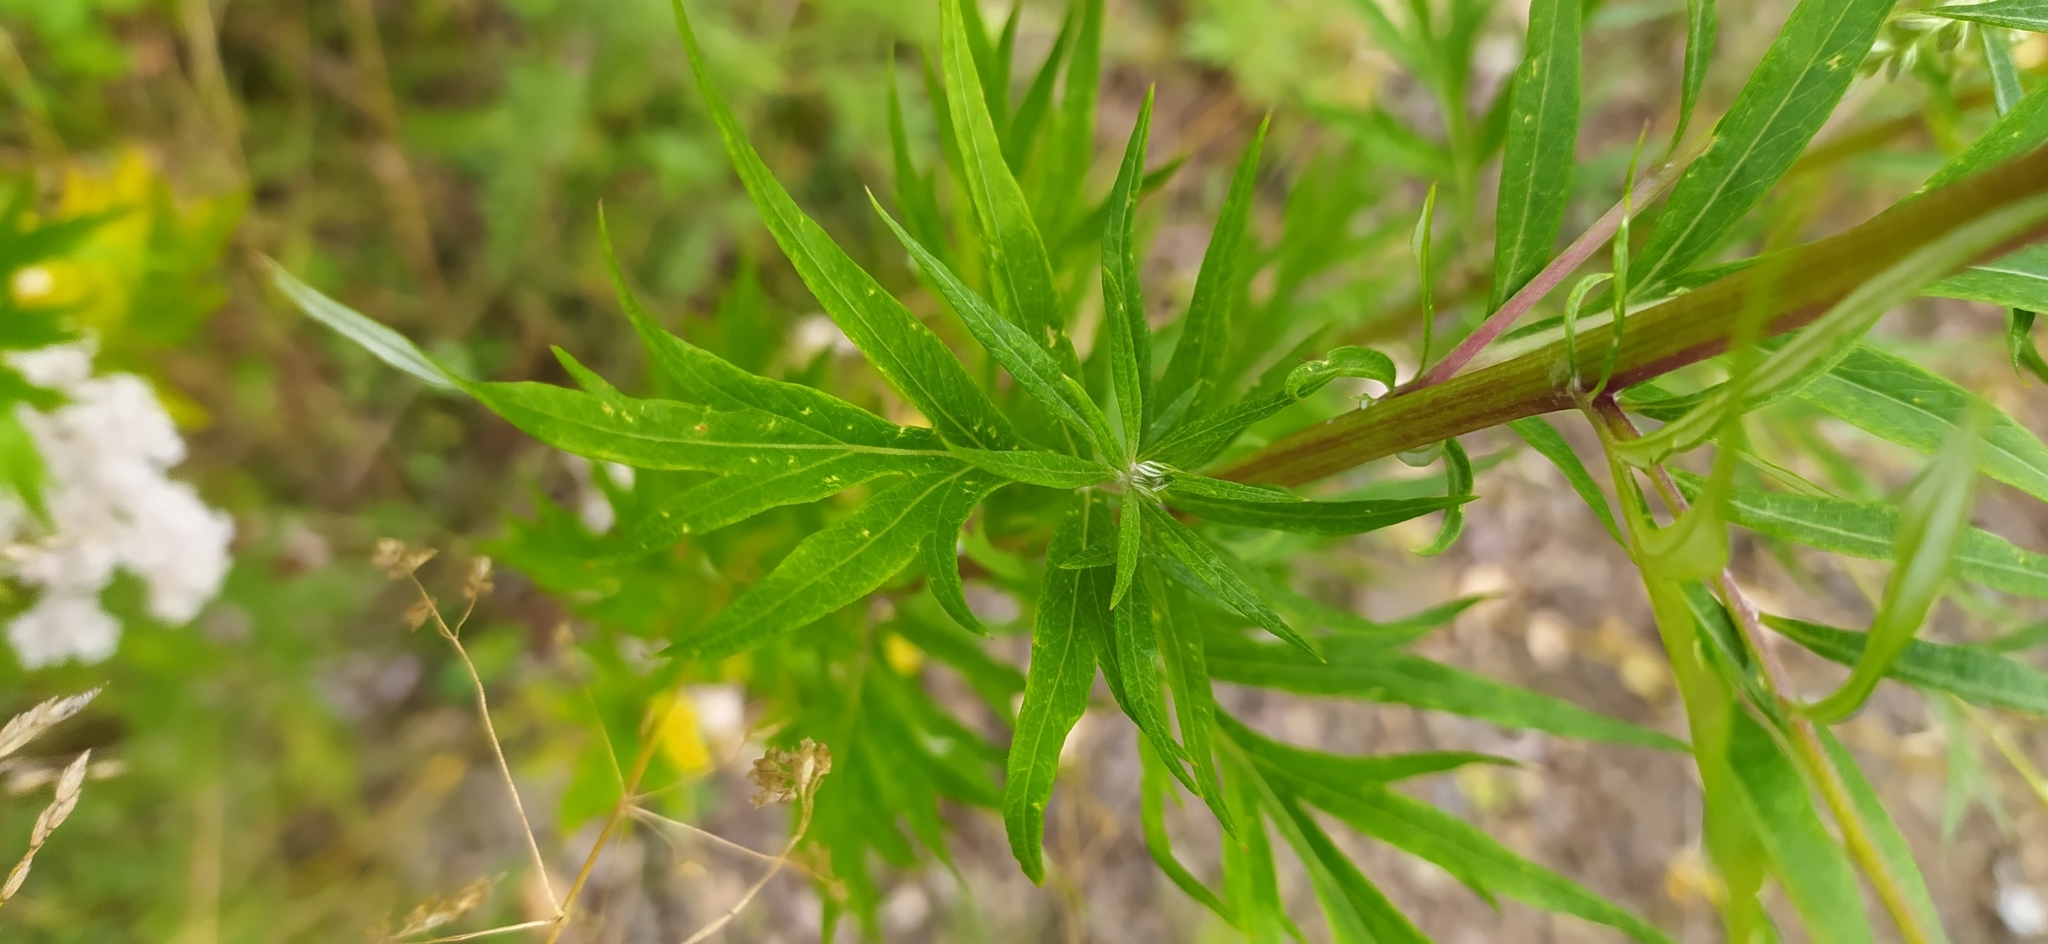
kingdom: Plantae
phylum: Tracheophyta
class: Magnoliopsida
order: Asterales
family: Asteraceae
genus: Artemisia
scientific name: Artemisia vulgaris
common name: Mugwort
